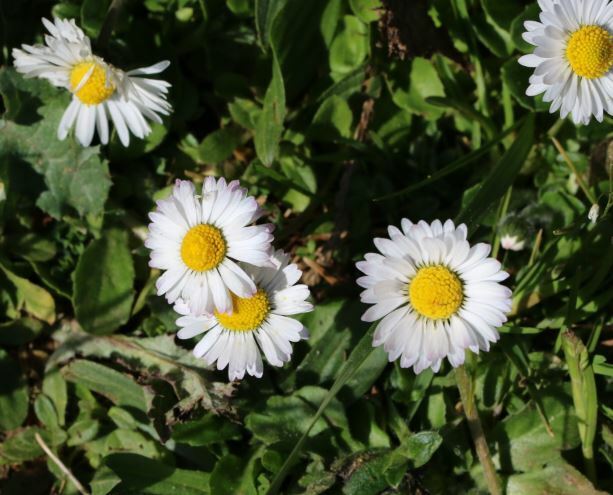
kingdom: Plantae
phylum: Tracheophyta
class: Magnoliopsida
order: Asterales
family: Asteraceae
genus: Bellis
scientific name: Bellis perennis
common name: Lawndaisy
